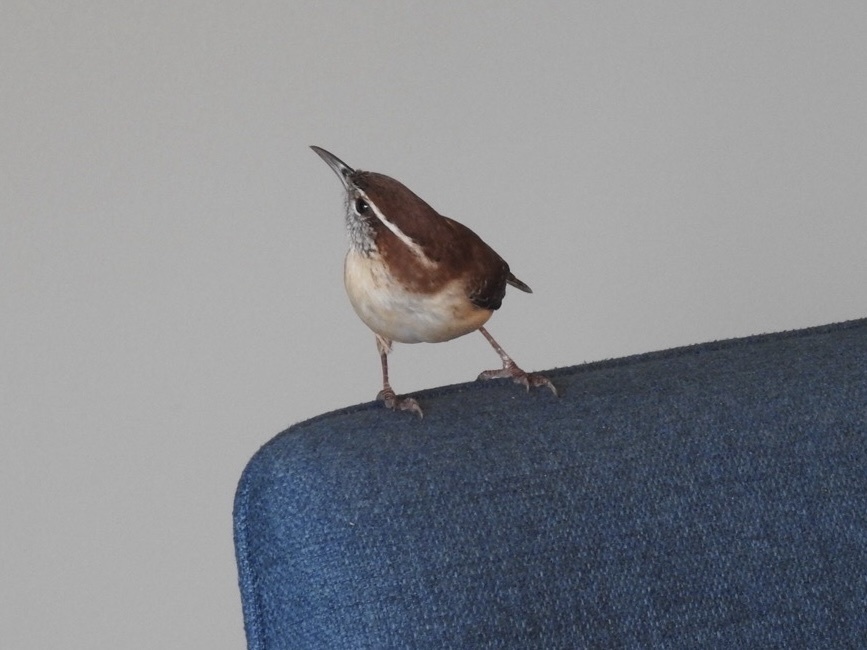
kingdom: Animalia
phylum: Chordata
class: Aves
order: Passeriformes
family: Troglodytidae
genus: Thryothorus
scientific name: Thryothorus ludovicianus
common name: Carolina wren
